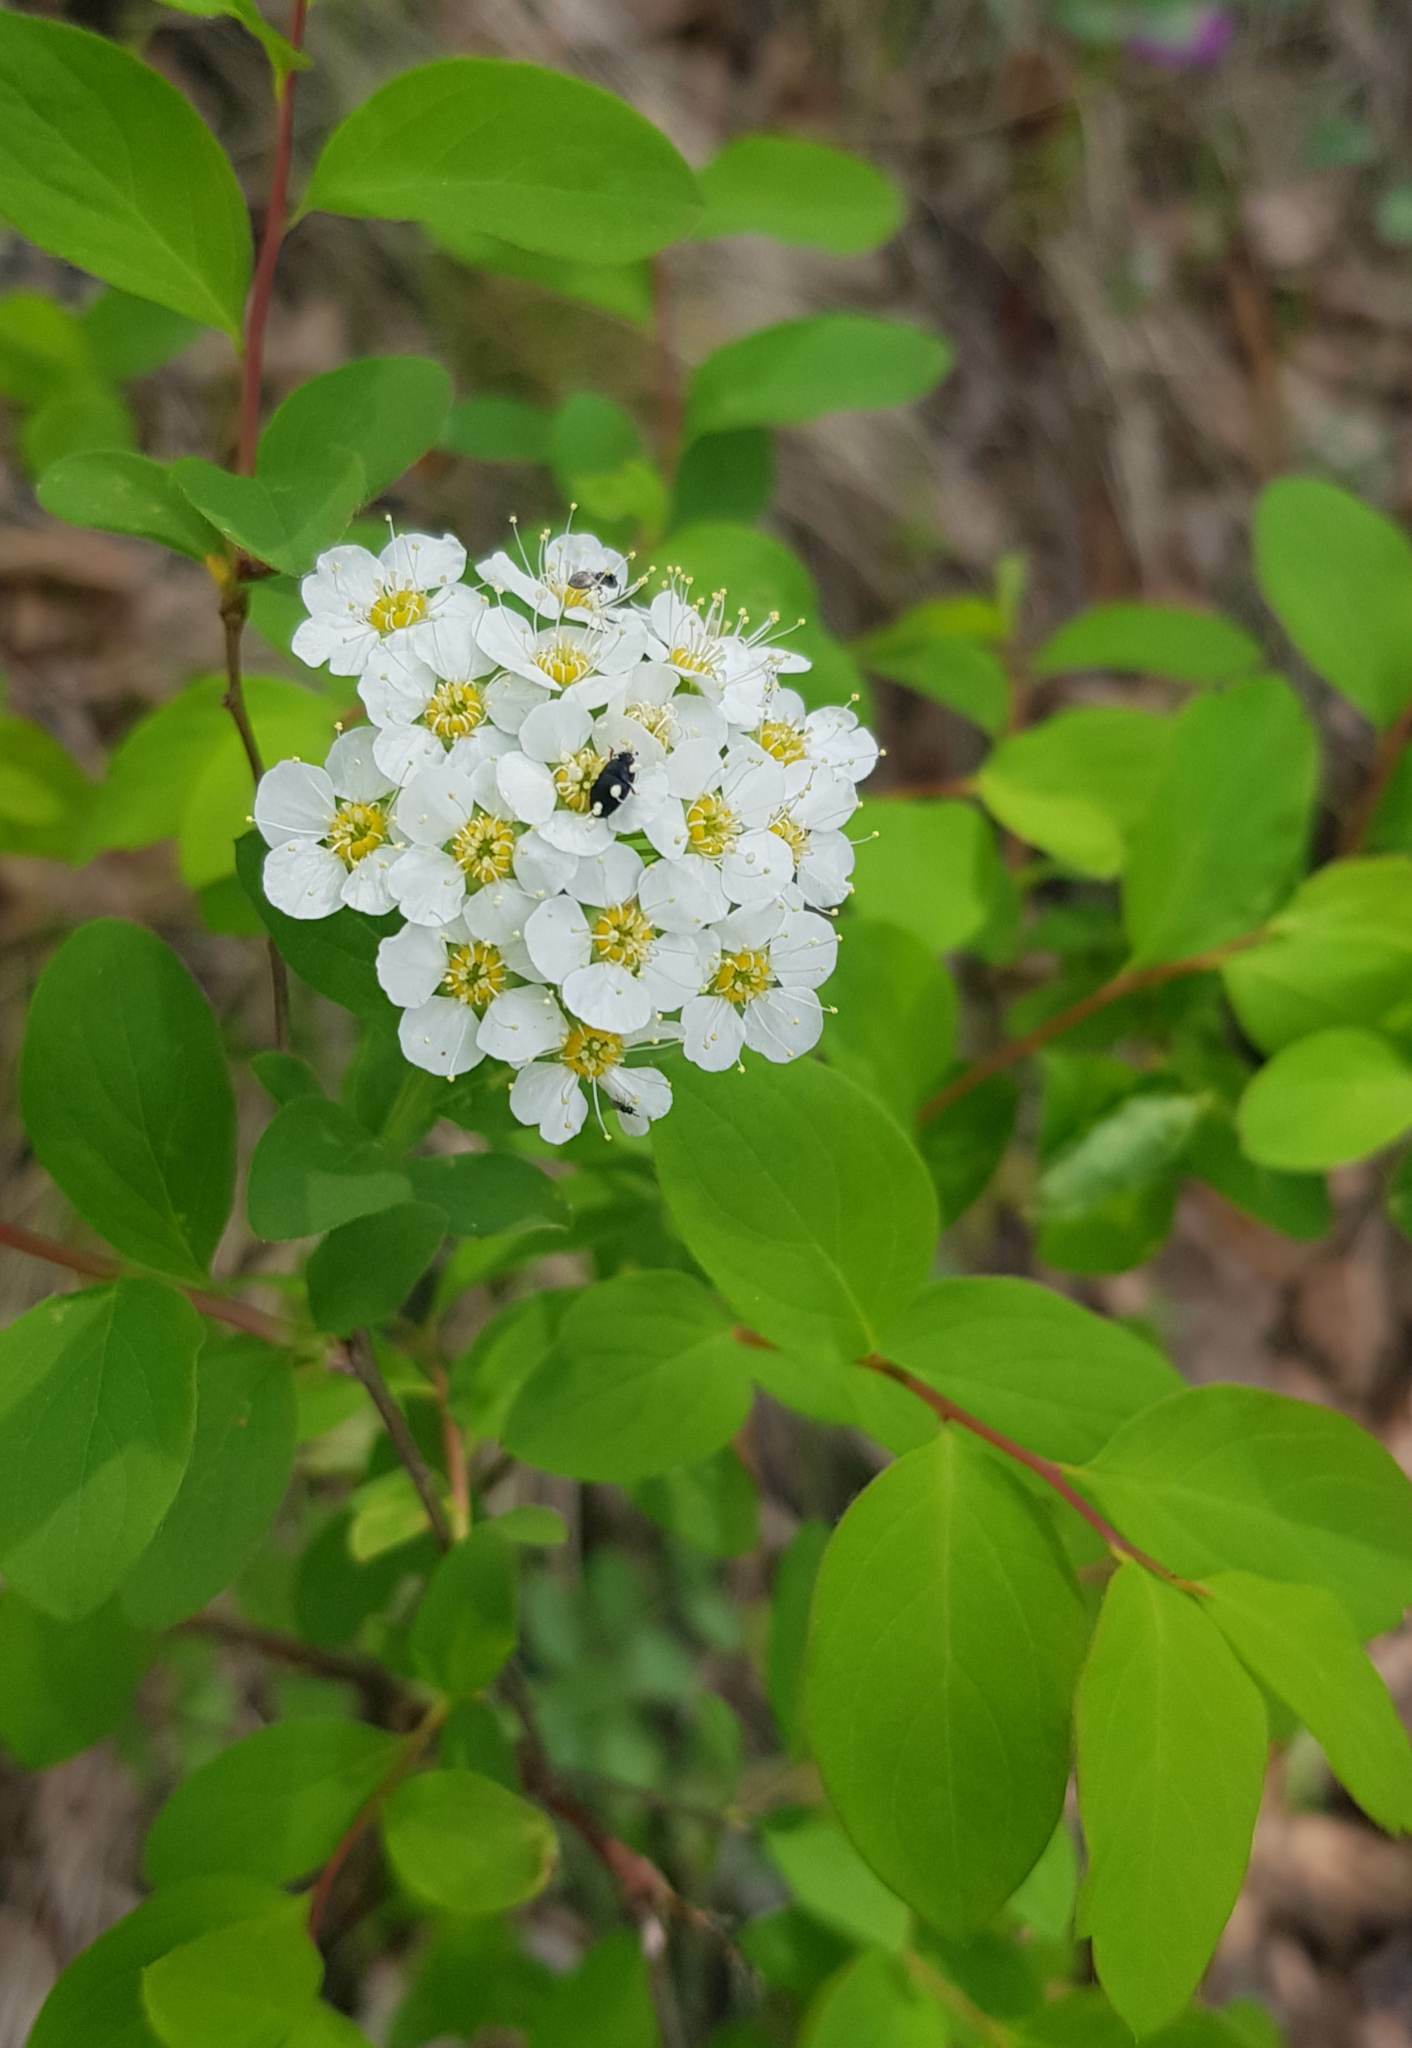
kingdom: Plantae
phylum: Tracheophyta
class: Magnoliopsida
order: Rosales
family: Rosaceae
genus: Spiraea
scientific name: Spiraea flexuosa
